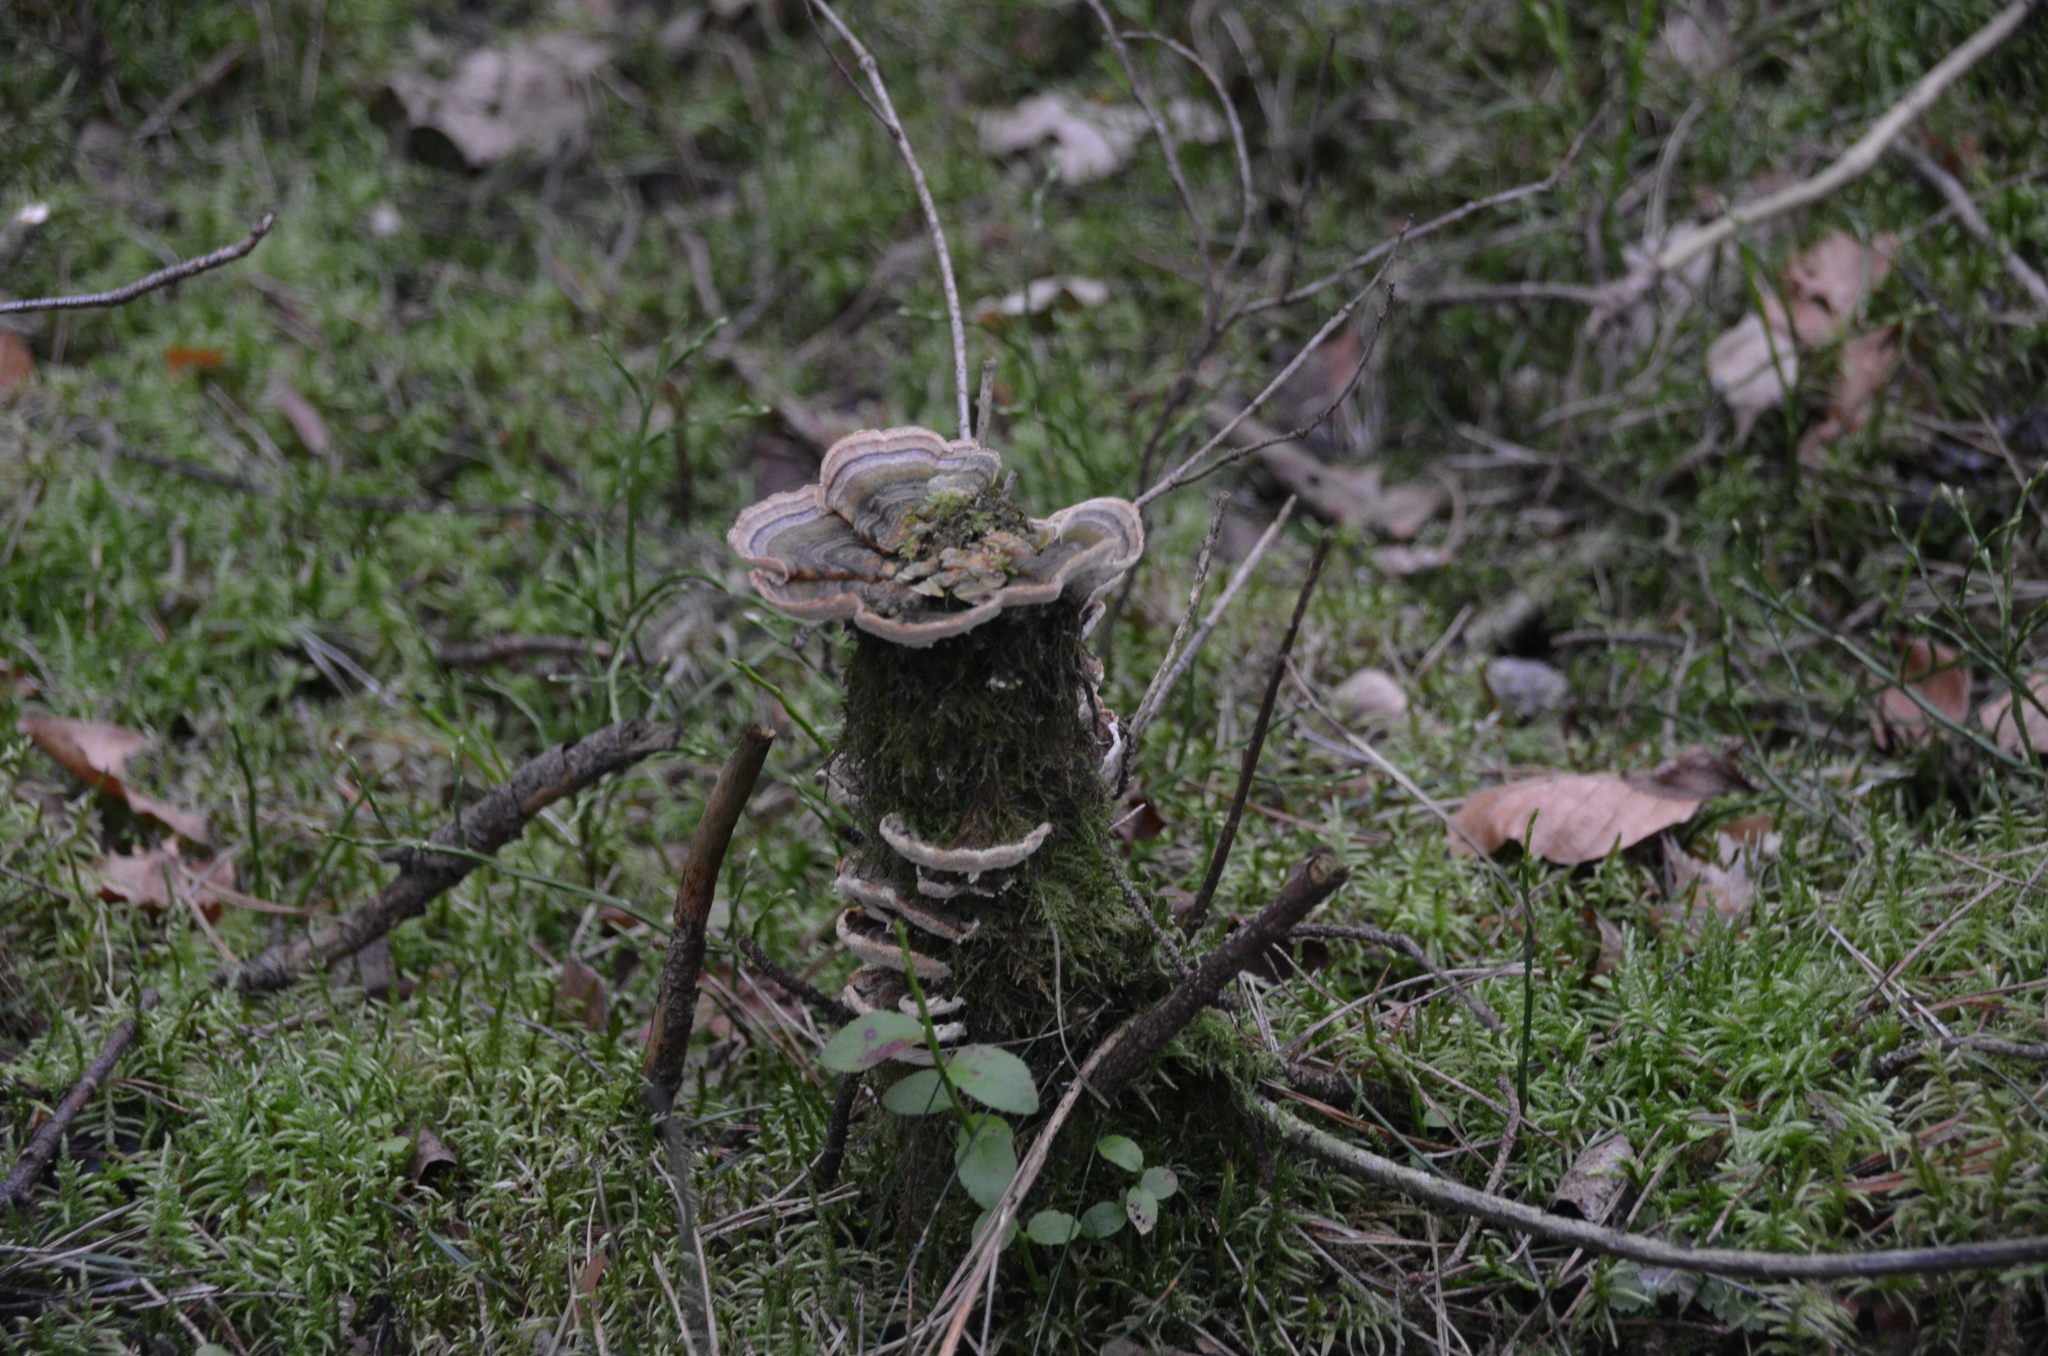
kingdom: Fungi
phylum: Basidiomycota
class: Agaricomycetes
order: Polyporales
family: Polyporaceae
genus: Trametes
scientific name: Trametes versicolor
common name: Turkeytail
